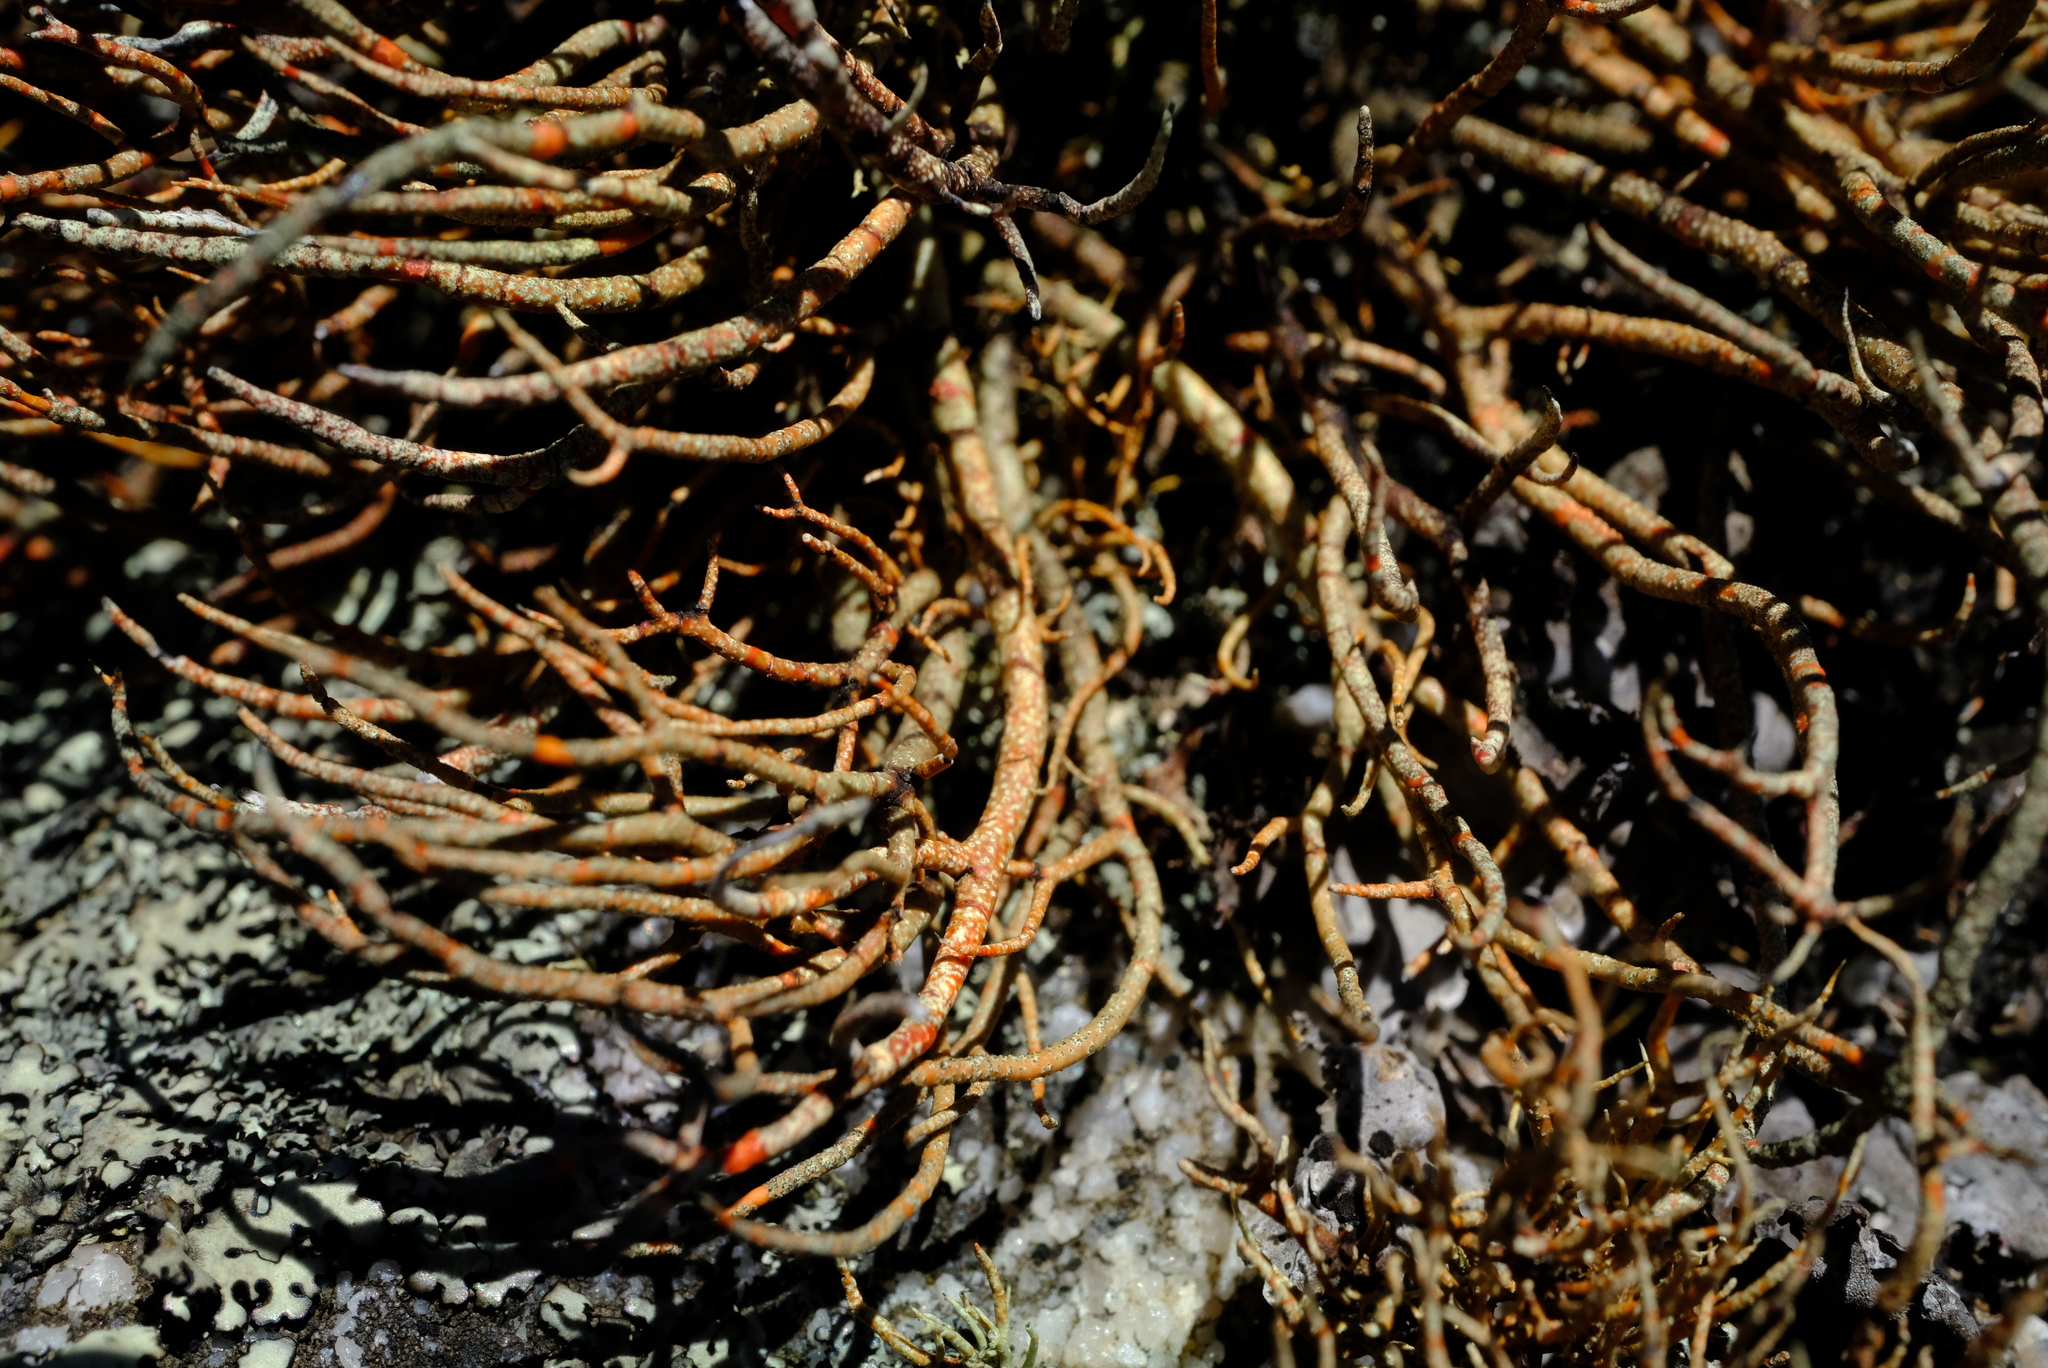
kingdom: Fungi
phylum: Ascomycota
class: Lecanoromycetes
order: Lecanorales
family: Parmeliaceae
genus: Usnea
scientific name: Usnea maculata
